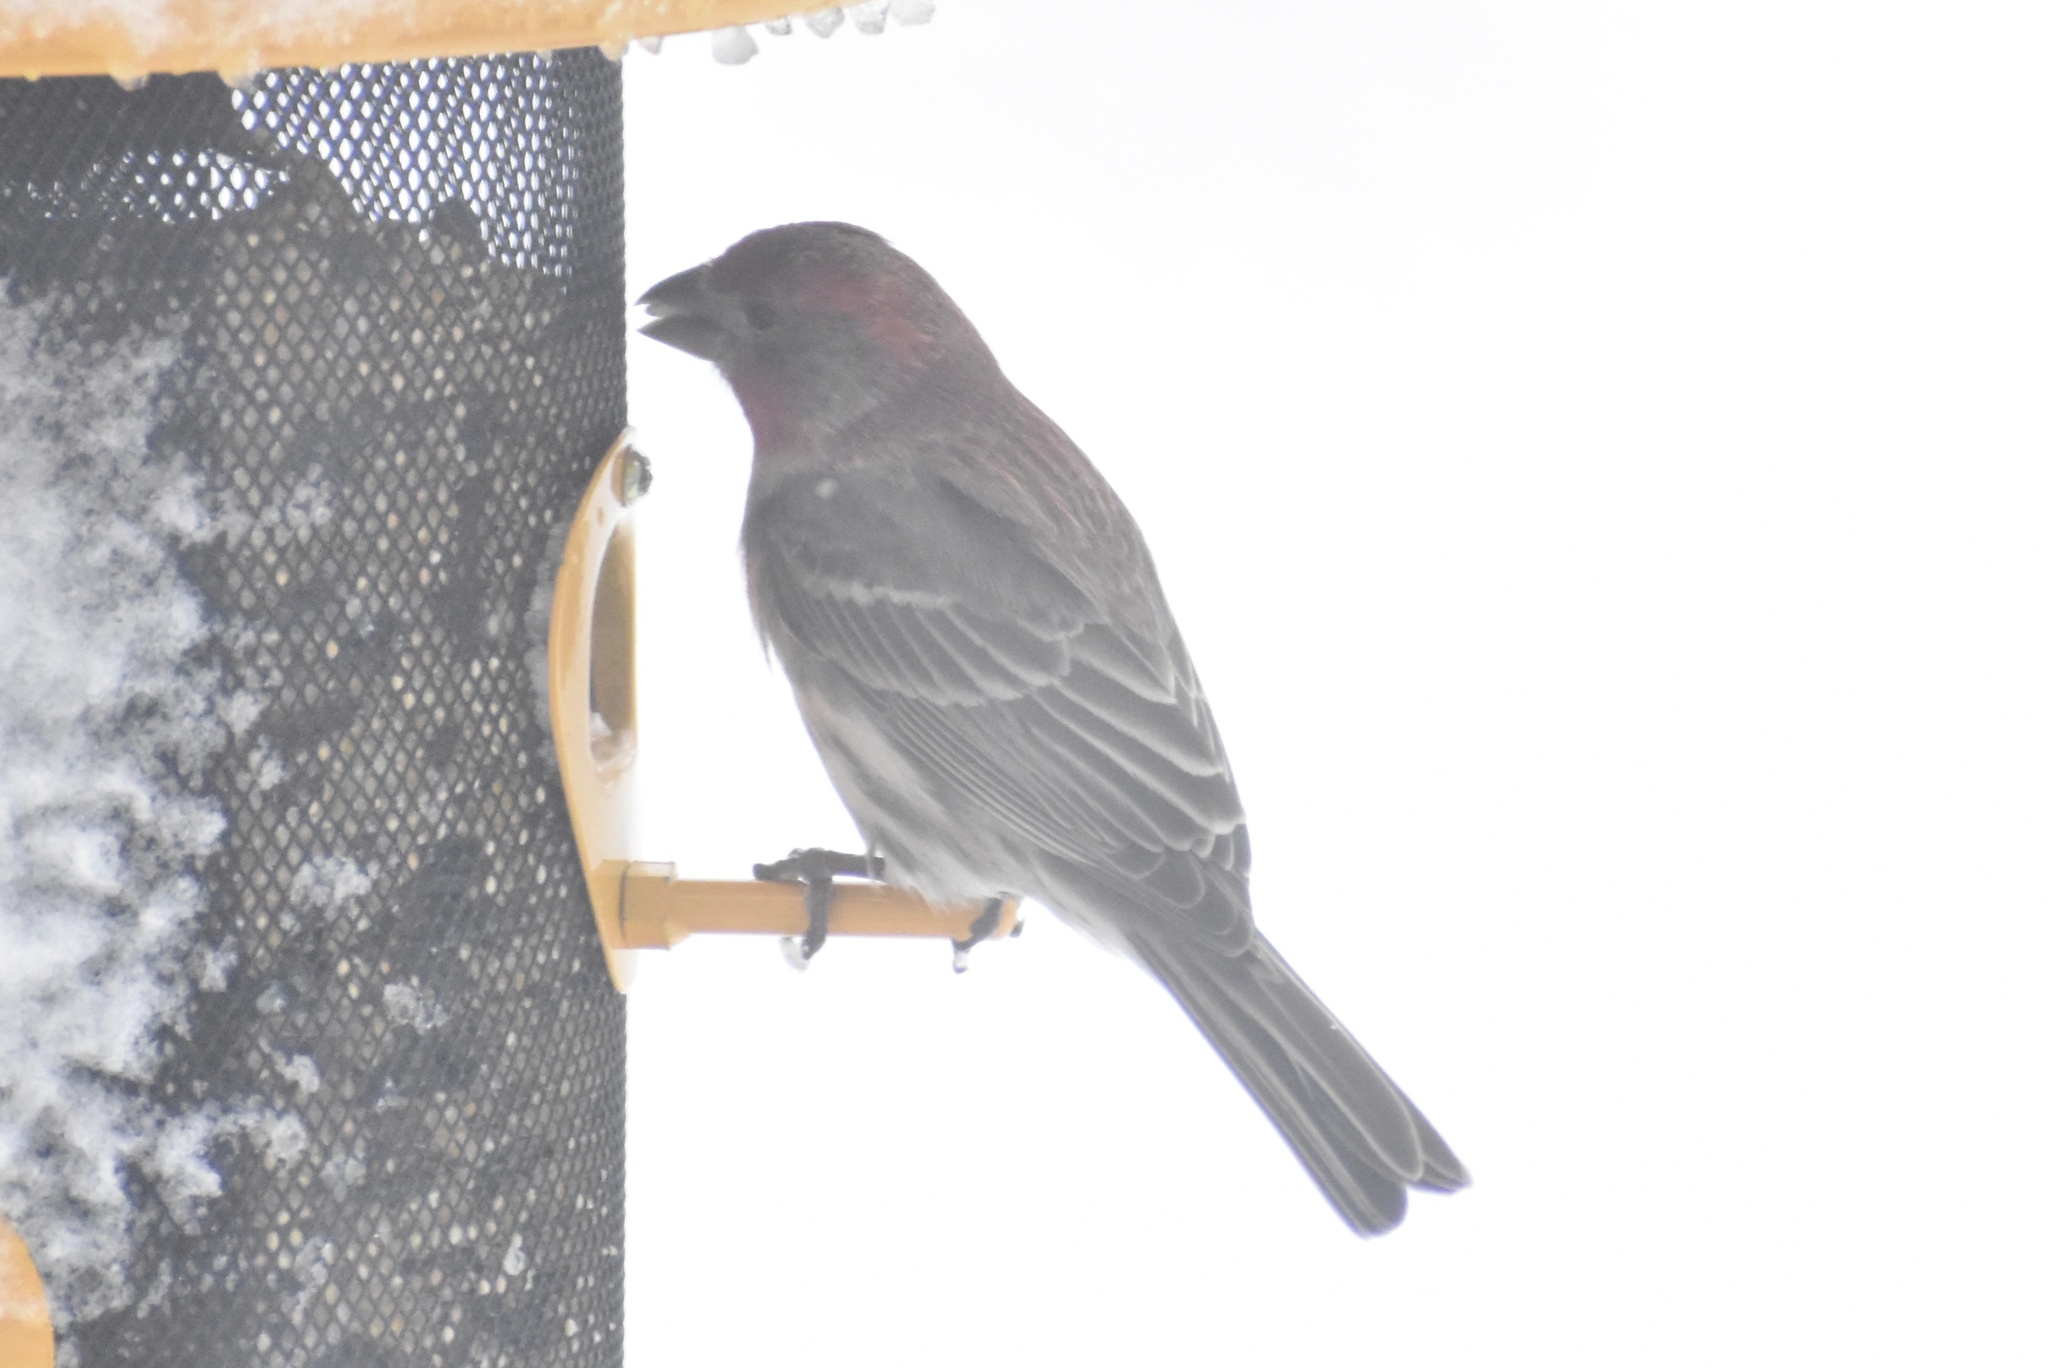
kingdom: Animalia
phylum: Chordata
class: Aves
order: Passeriformes
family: Fringillidae
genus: Haemorhous
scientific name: Haemorhous mexicanus
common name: House finch
